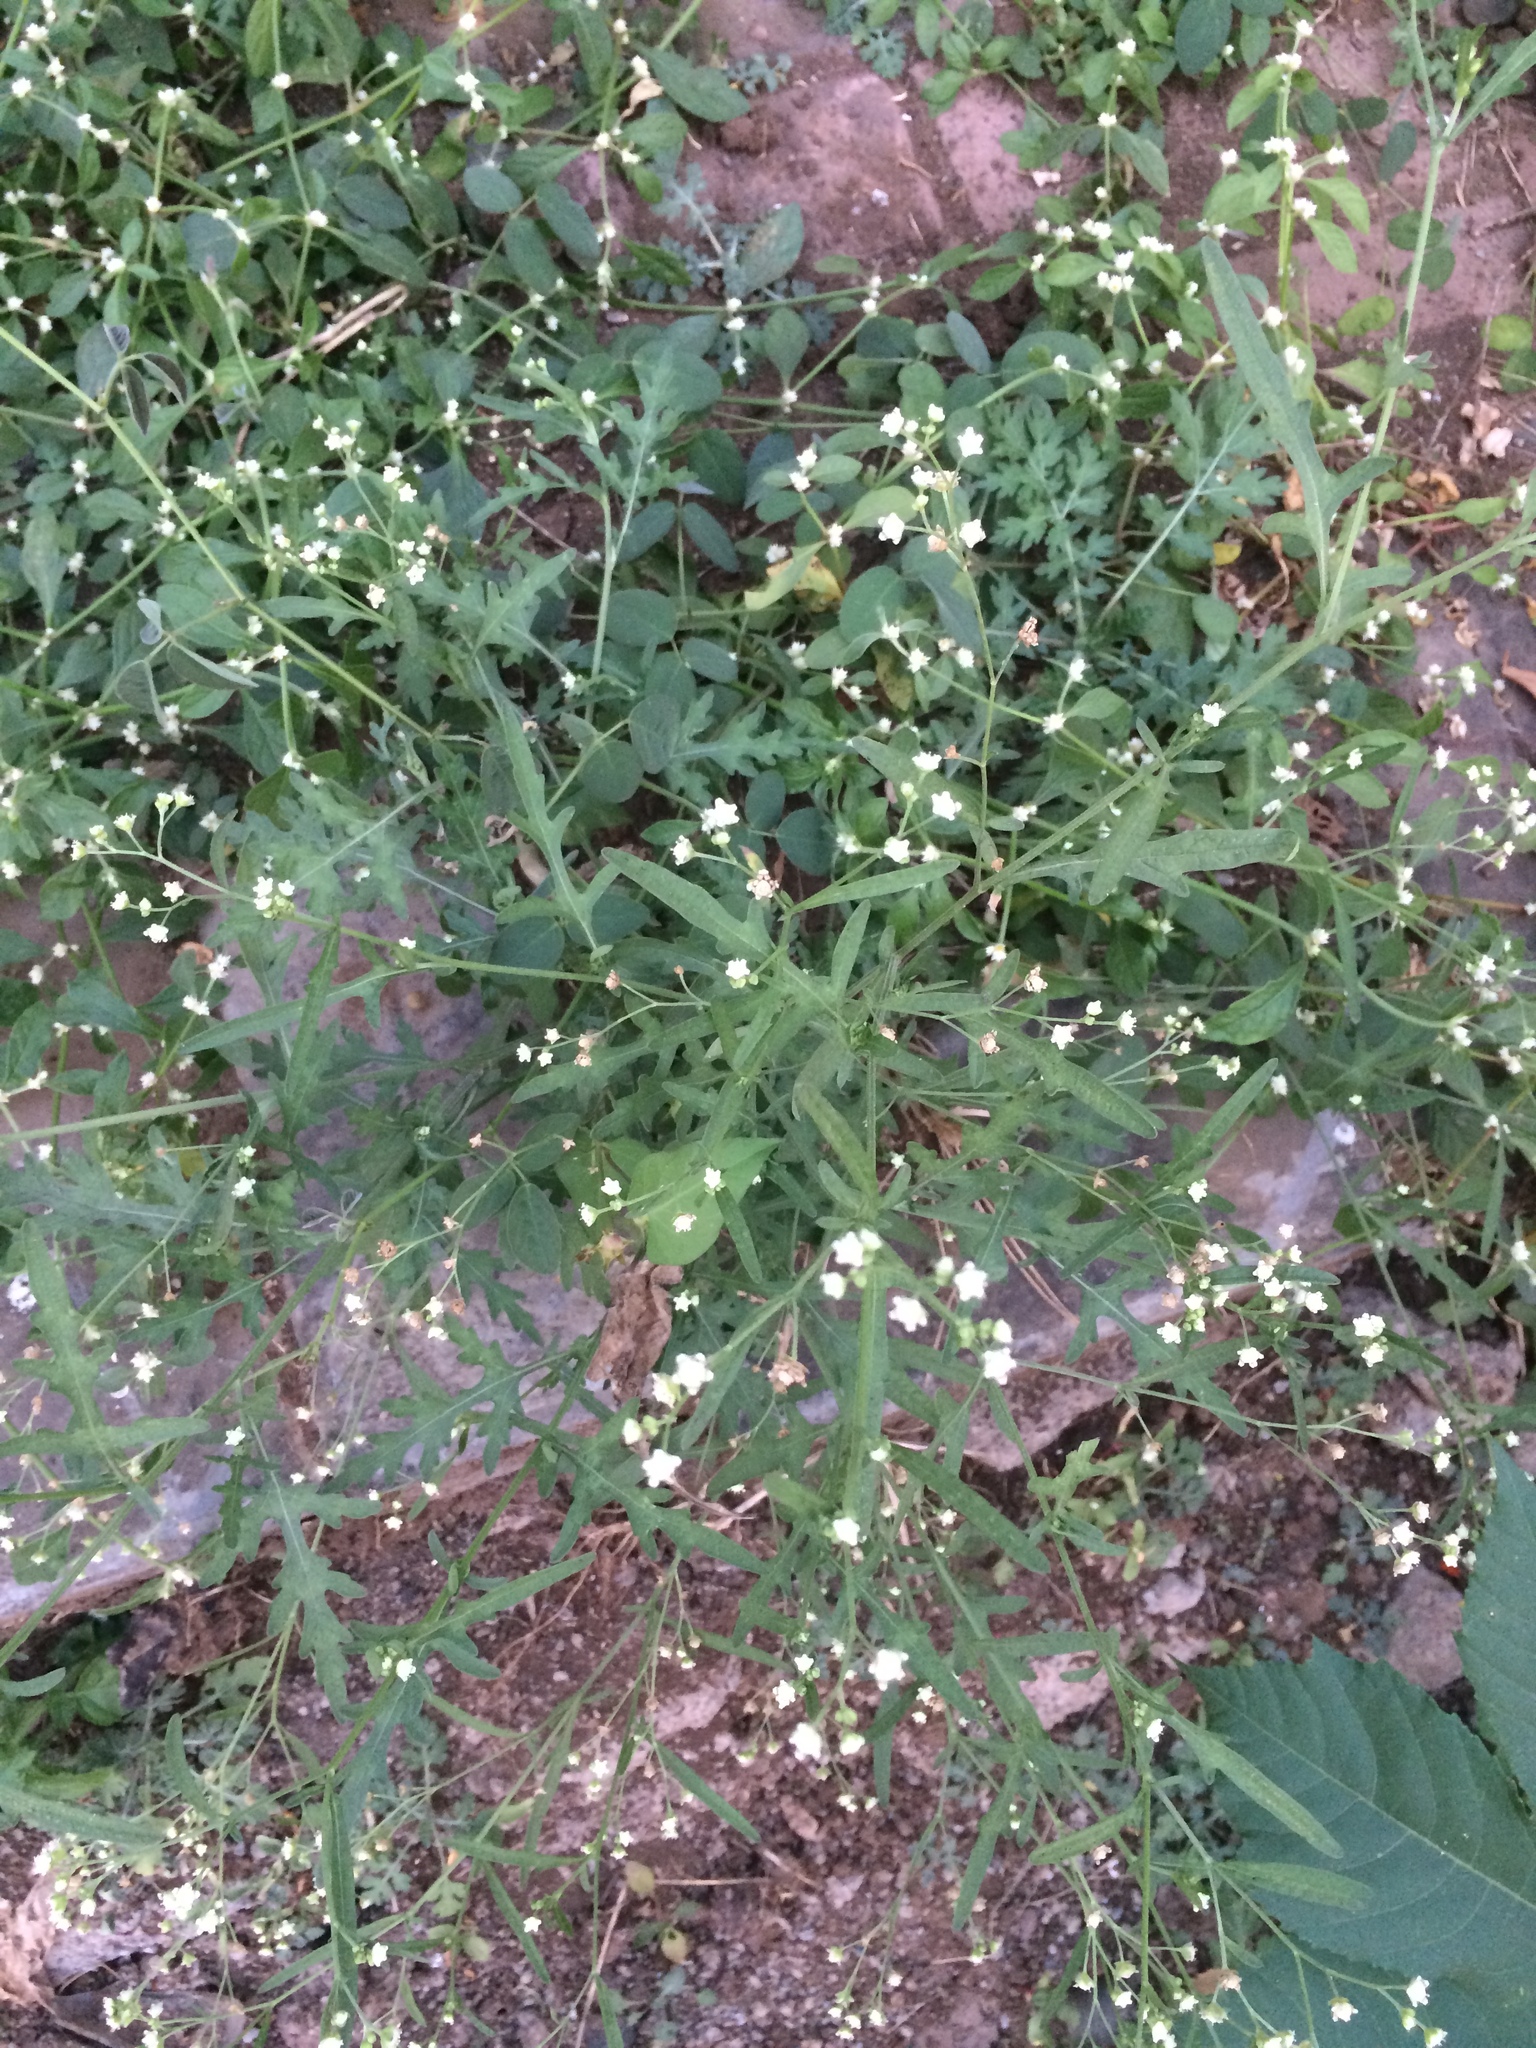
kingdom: Plantae
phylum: Tracheophyta
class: Magnoliopsida
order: Asterales
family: Asteraceae
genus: Parthenium
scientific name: Parthenium hysterophorus
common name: Santa maria feverfew
